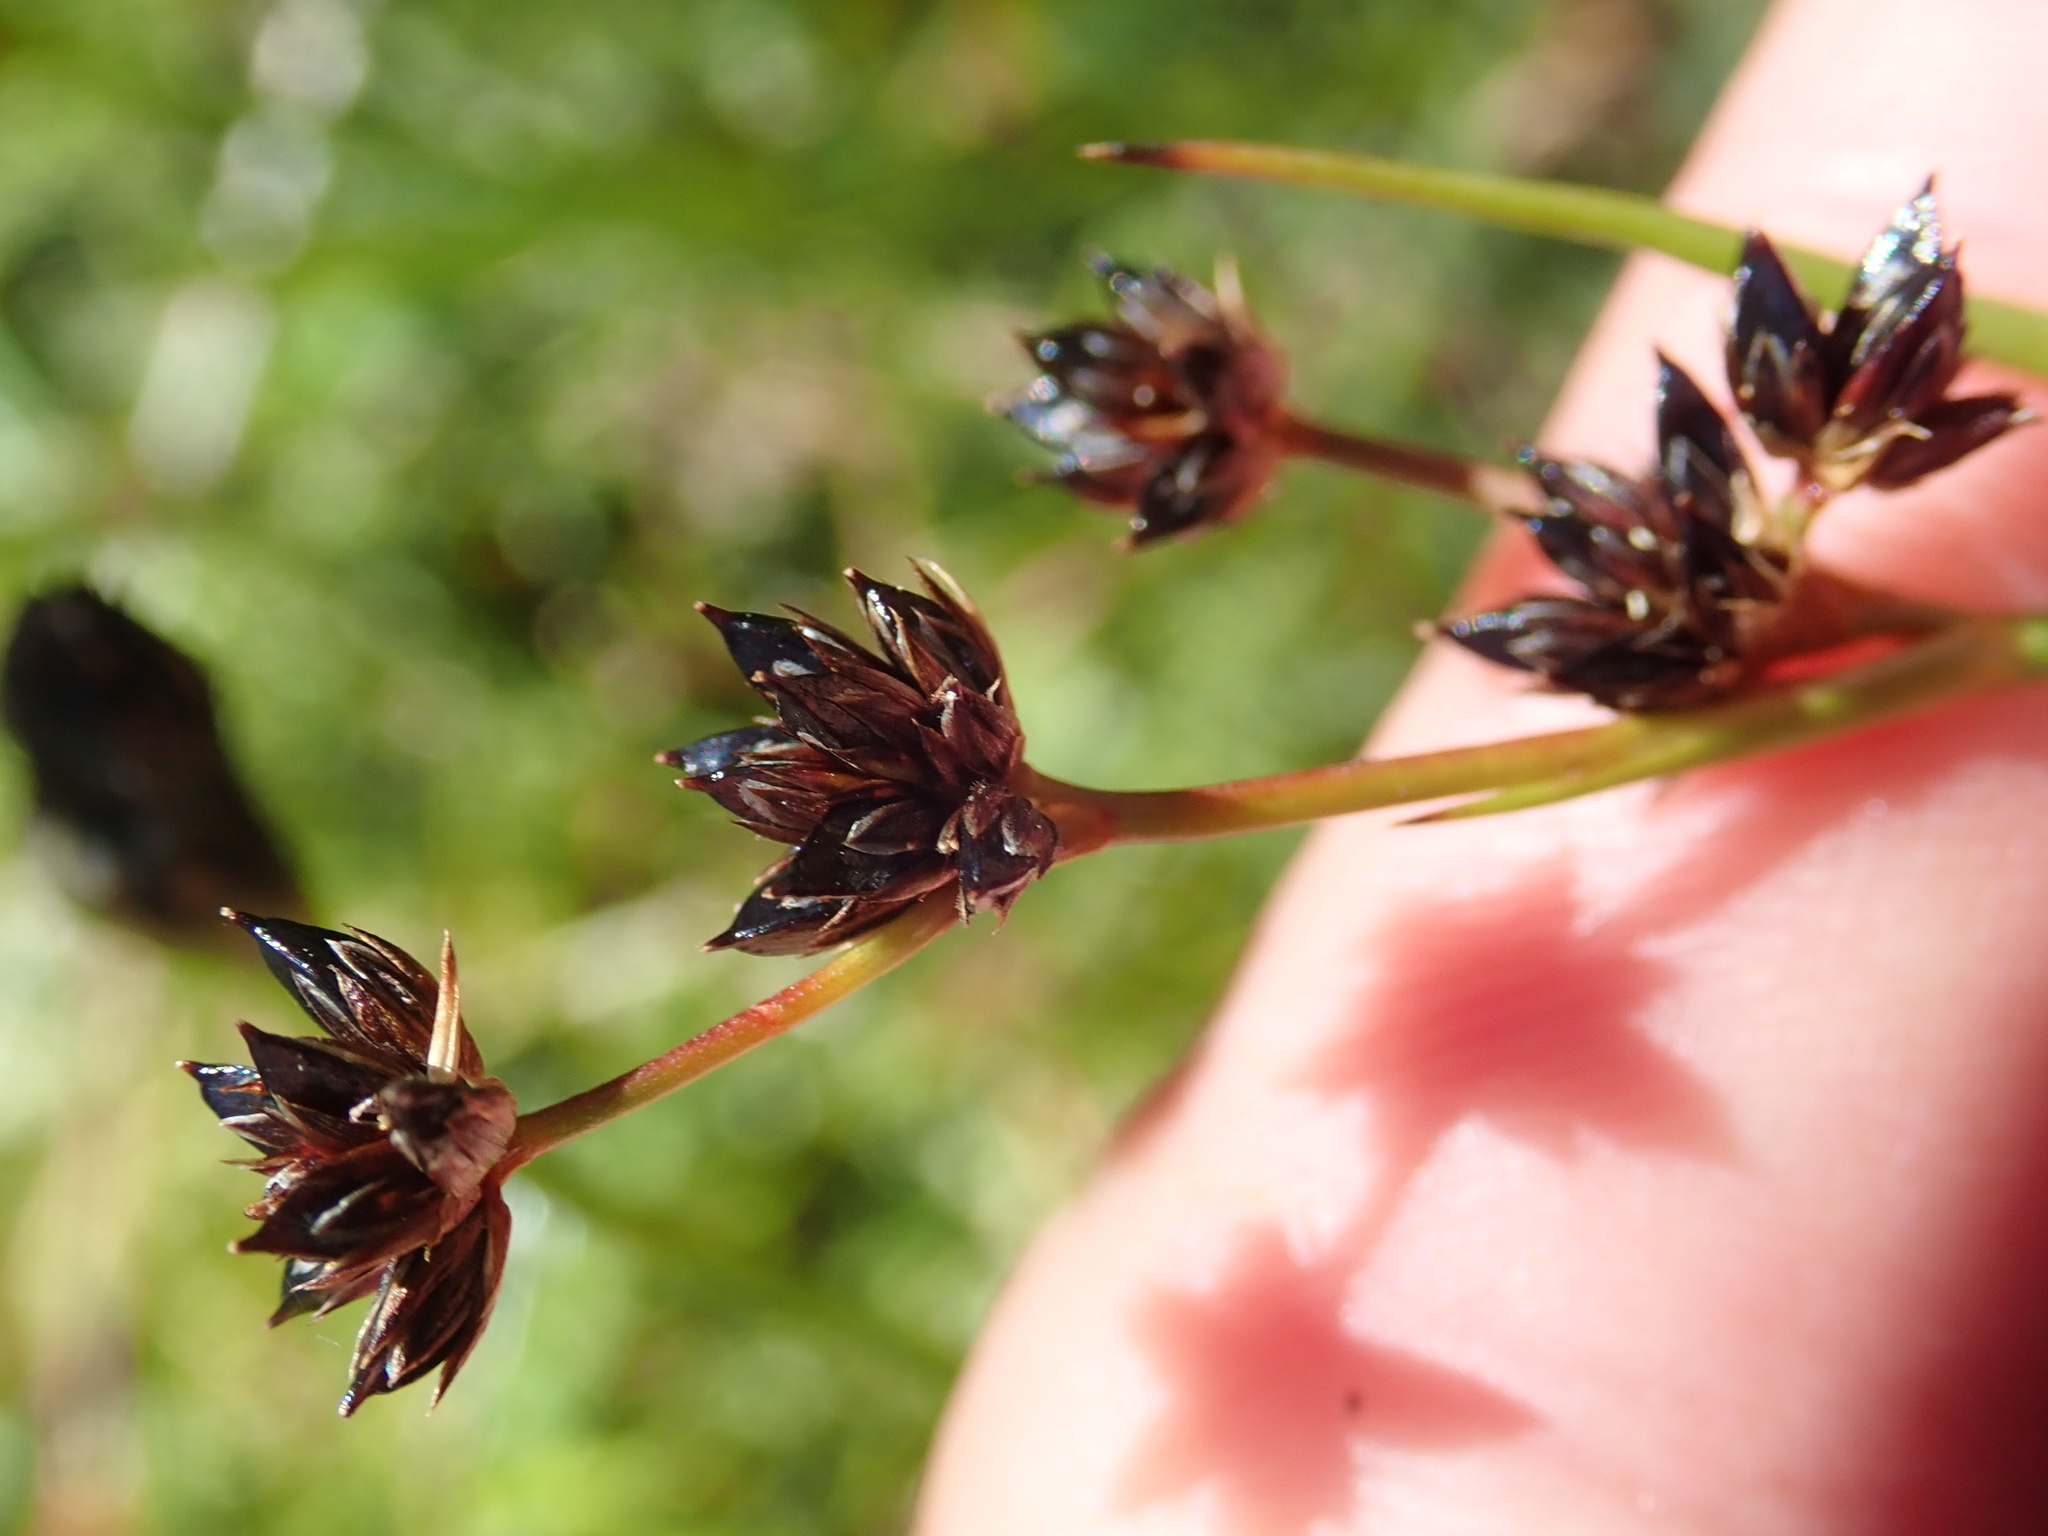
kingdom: Plantae
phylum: Tracheophyta
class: Liliopsida
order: Poales
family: Juncaceae
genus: Juncus
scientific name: Juncus articulatus
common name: Jointed rush
